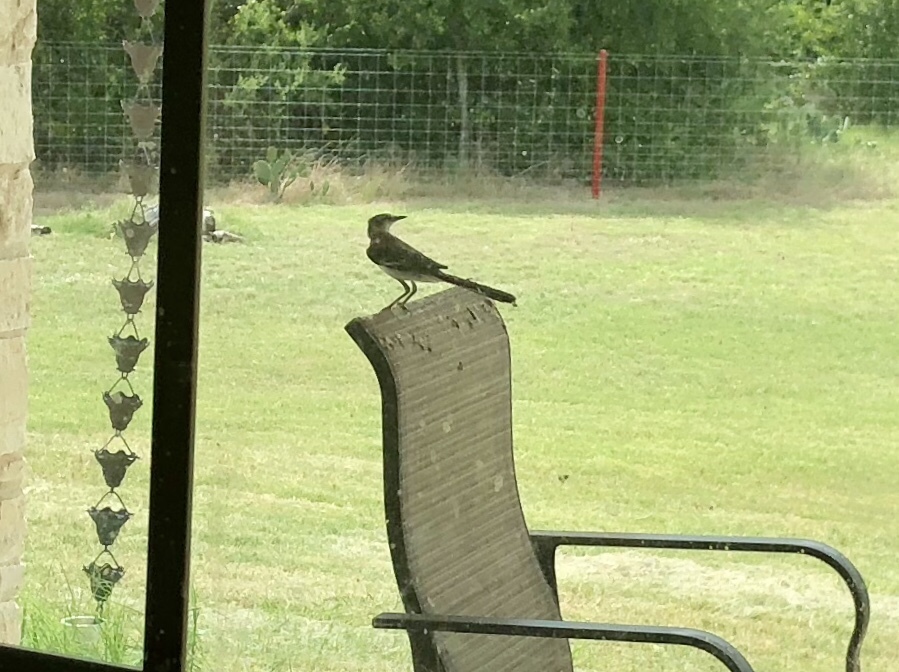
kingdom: Animalia
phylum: Chordata
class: Aves
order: Passeriformes
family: Mimidae
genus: Mimus
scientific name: Mimus polyglottos
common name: Northern mockingbird
